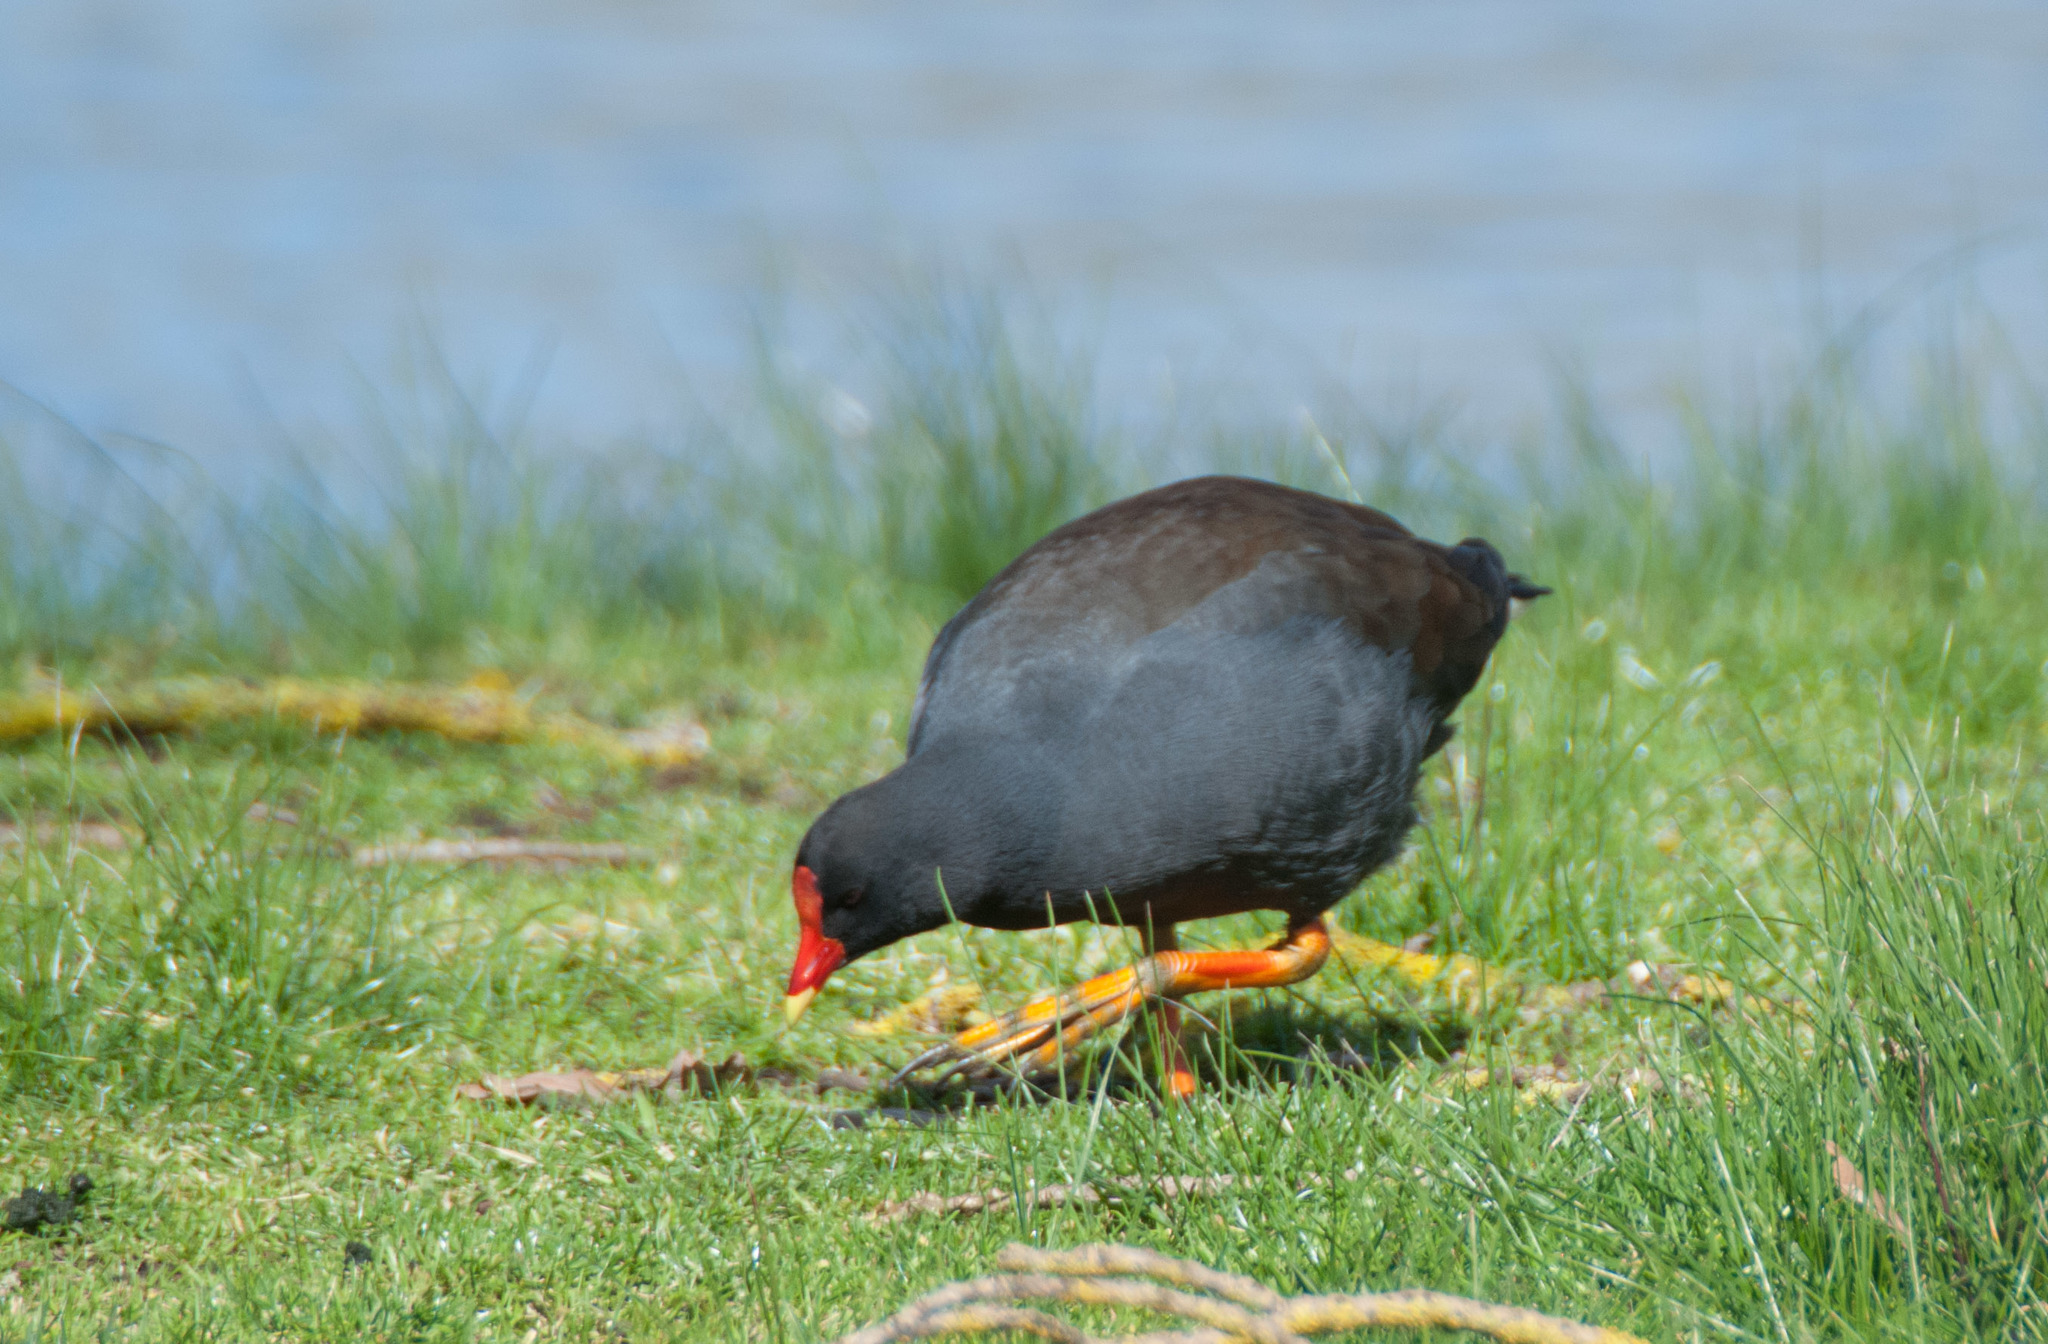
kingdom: Animalia
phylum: Chordata
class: Aves
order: Gruiformes
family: Rallidae
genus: Gallinula
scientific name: Gallinula tenebrosa
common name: Dusky moorhen
